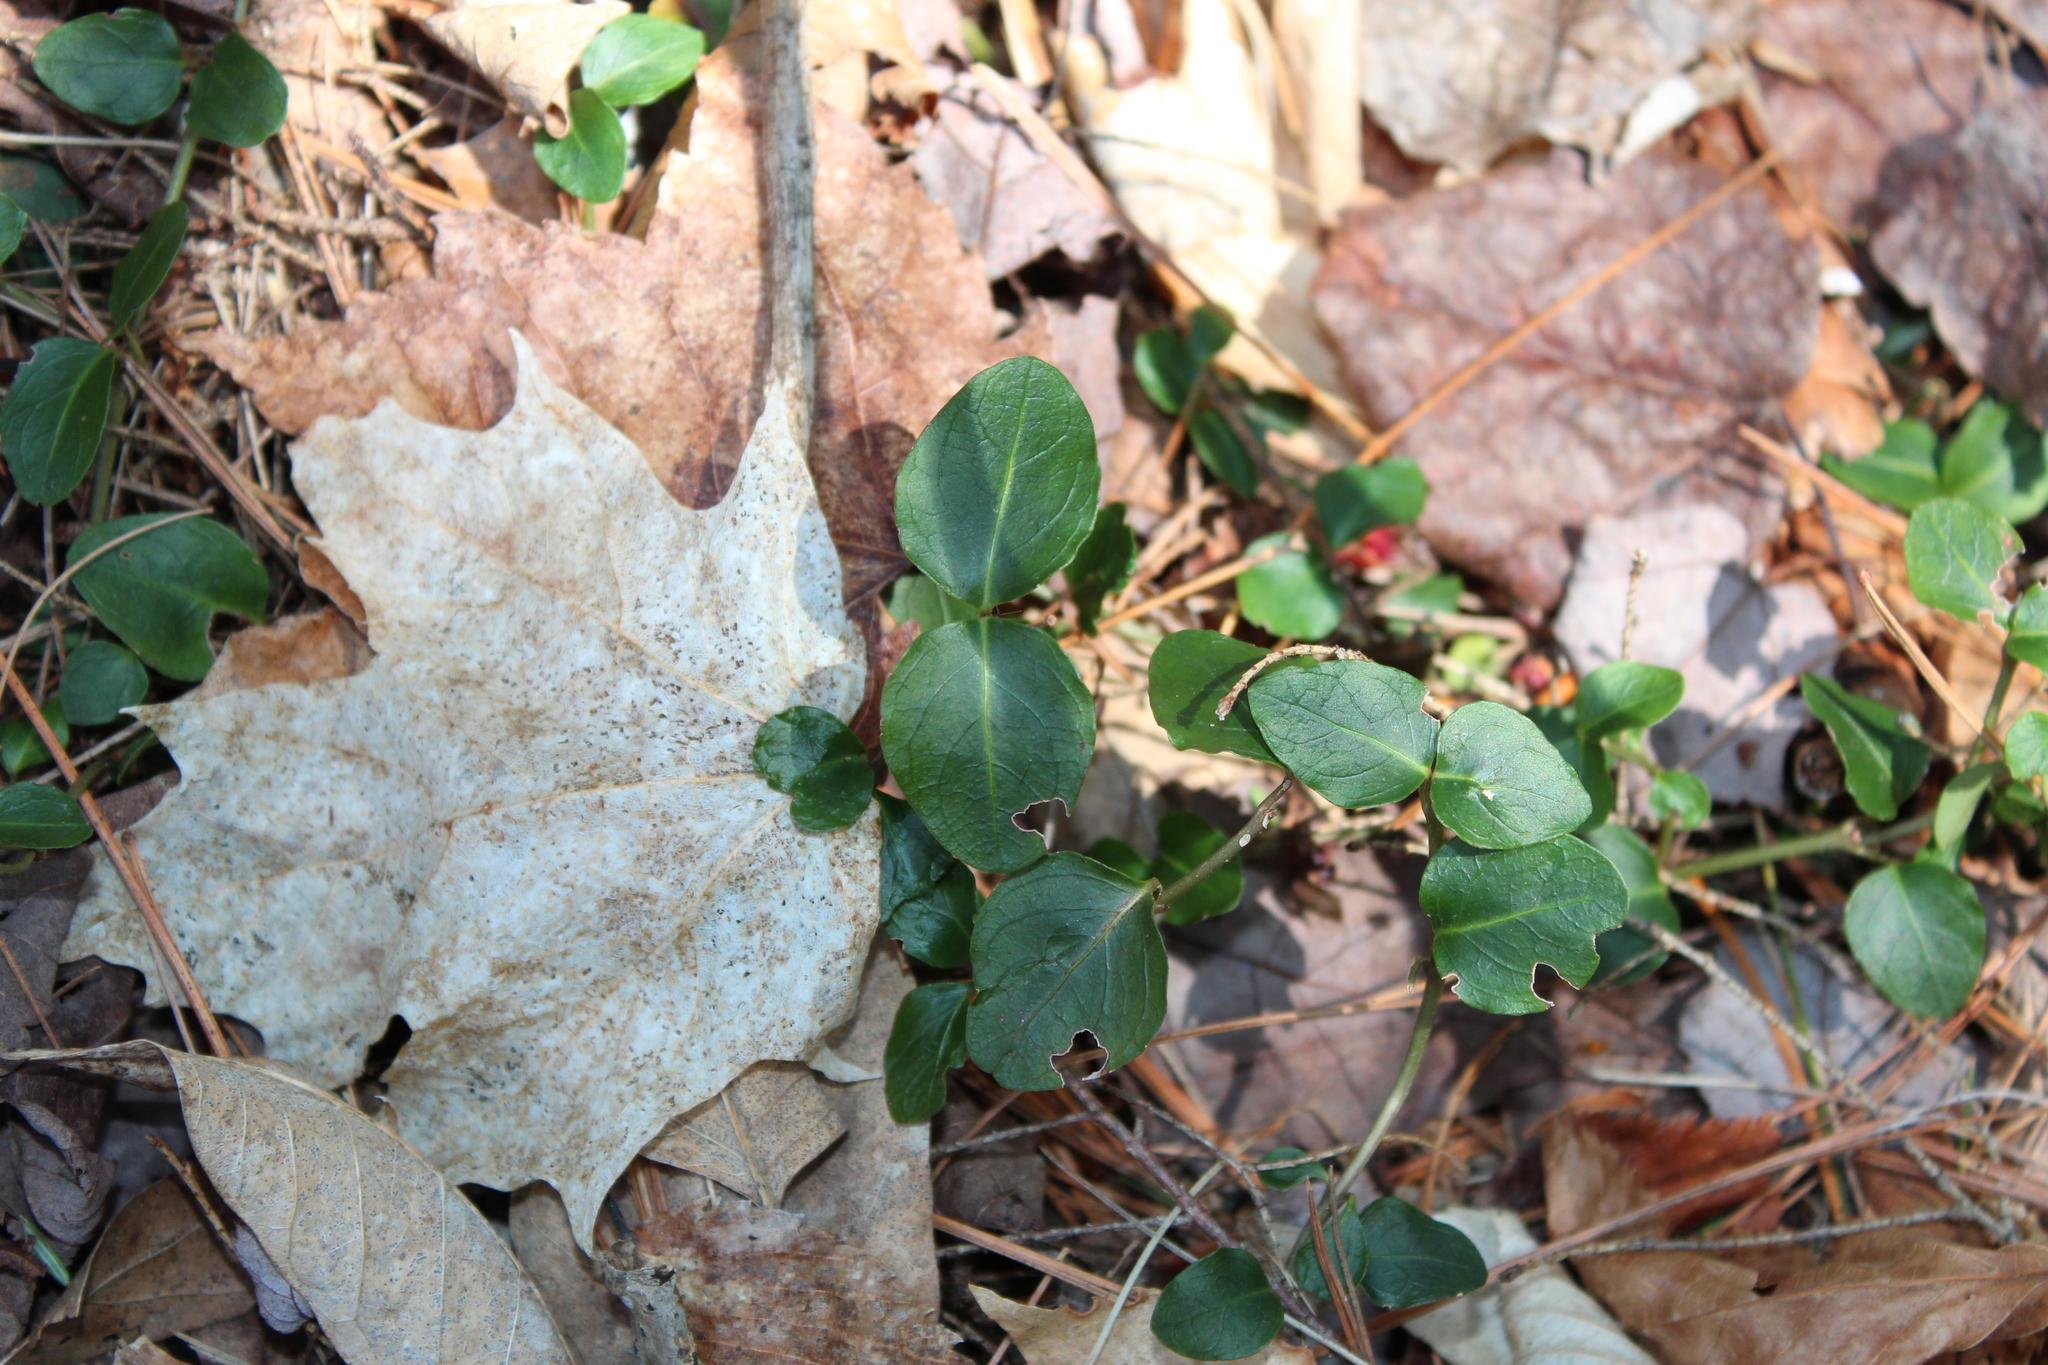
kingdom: Plantae
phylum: Tracheophyta
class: Magnoliopsida
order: Gentianales
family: Rubiaceae
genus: Mitchella
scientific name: Mitchella repens
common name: Partridge-berry
